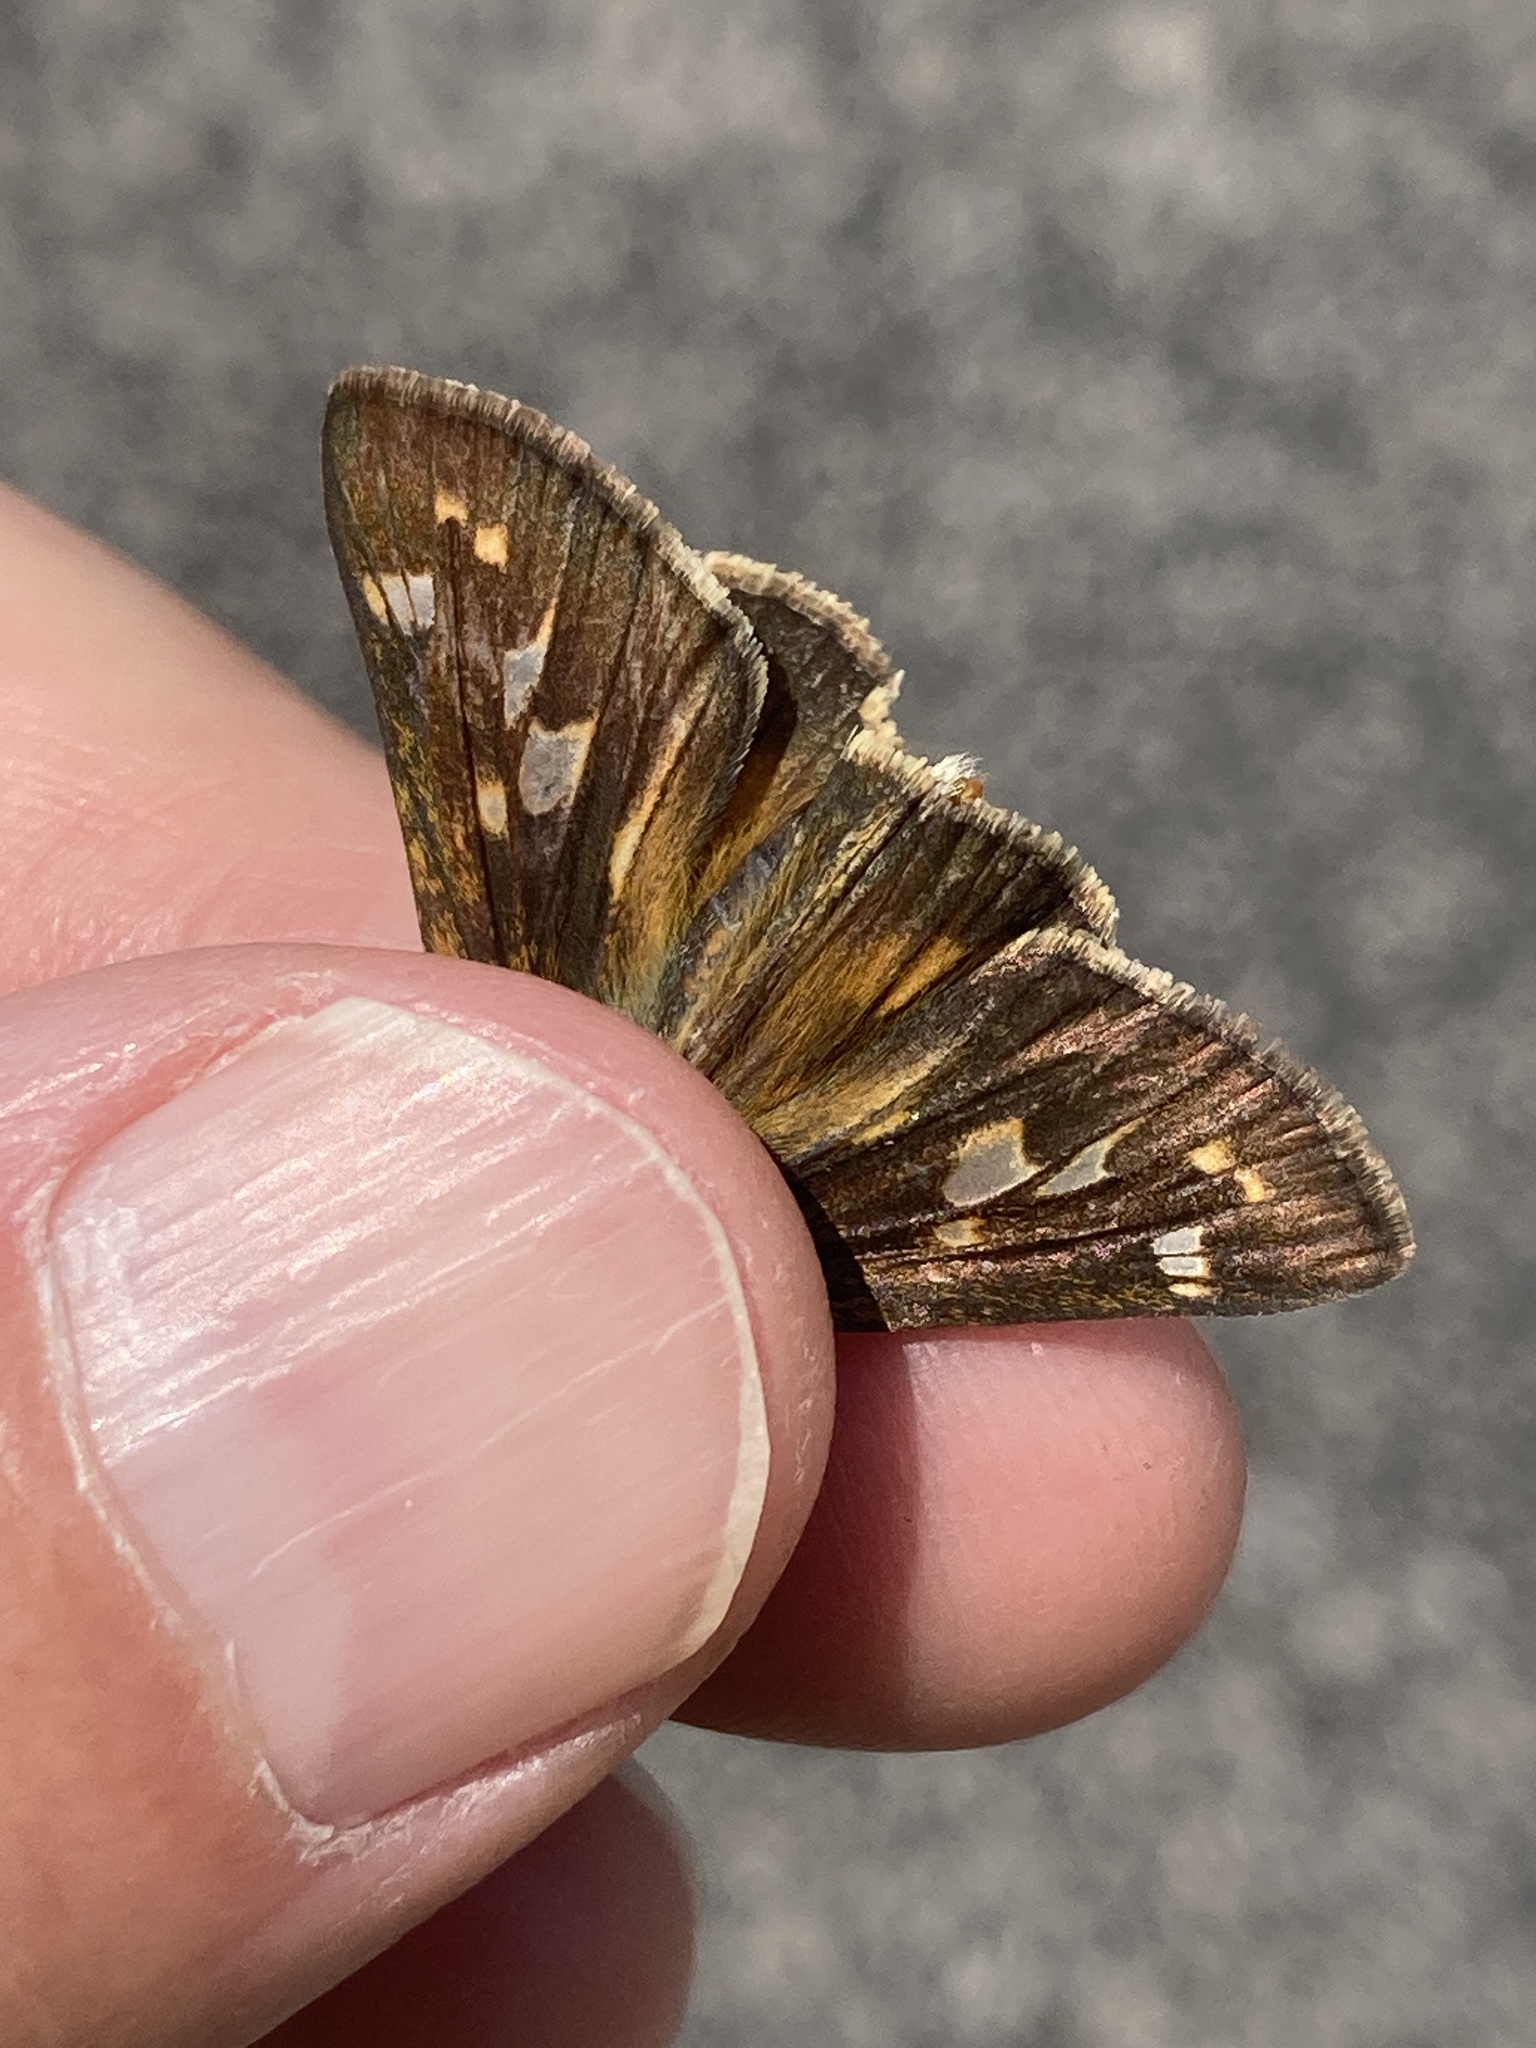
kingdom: Animalia
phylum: Arthropoda
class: Insecta
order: Lepidoptera
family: Hesperiidae
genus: Atalopedes
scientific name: Atalopedes
